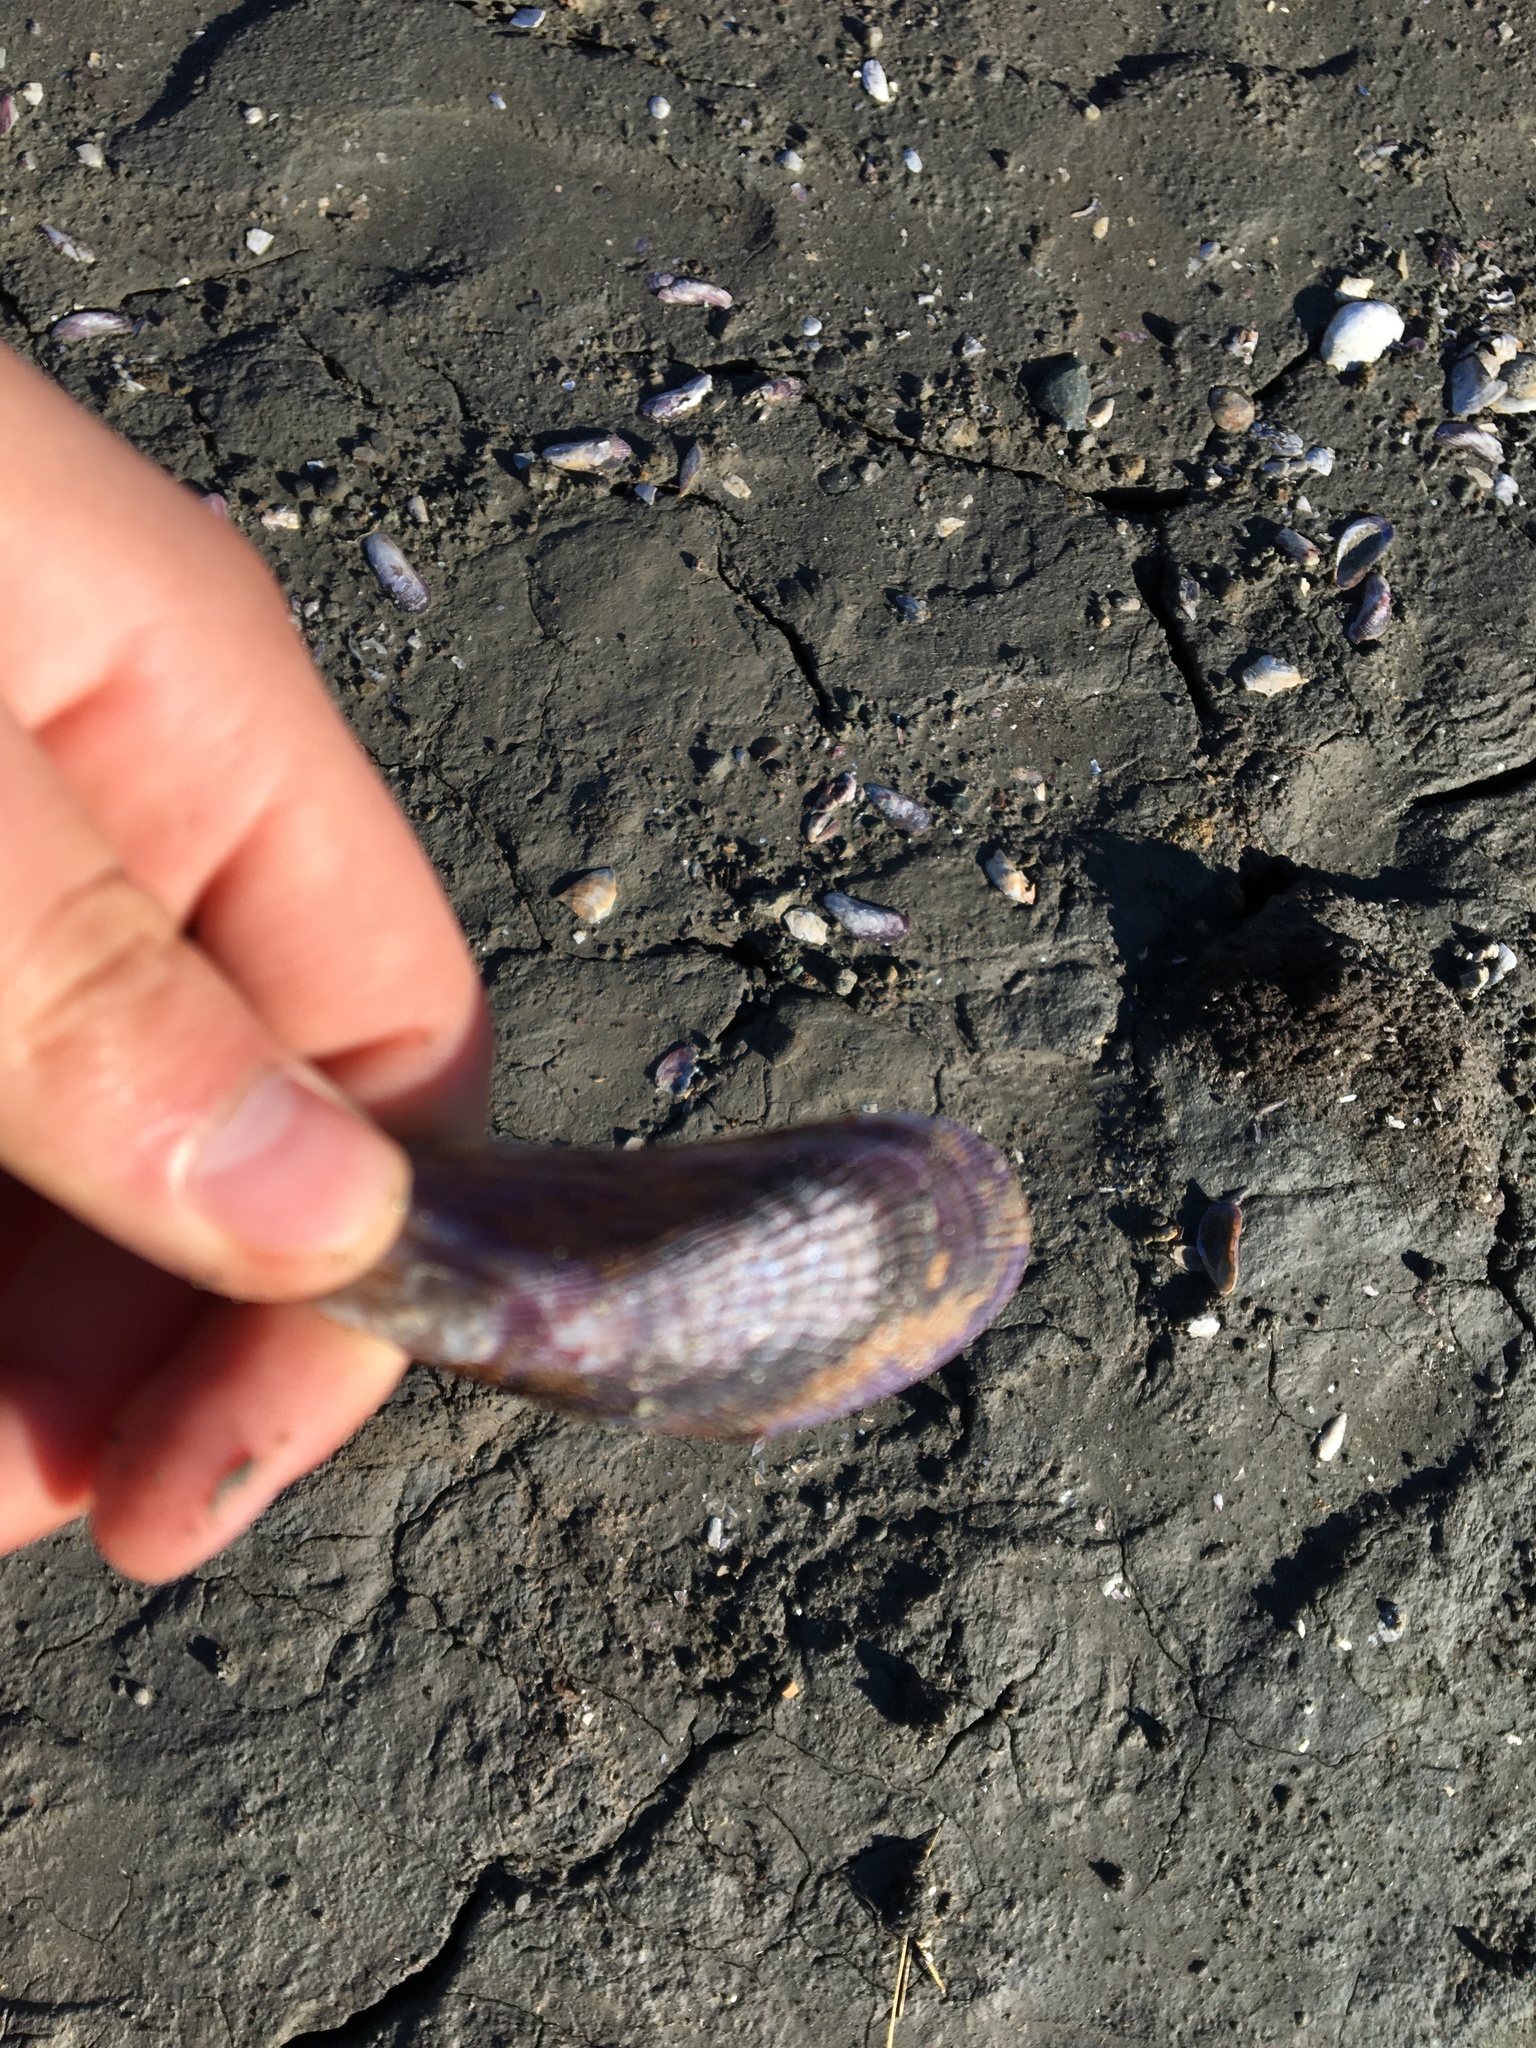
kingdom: Animalia
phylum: Mollusca
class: Bivalvia
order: Mytilida
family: Mytilidae
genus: Geukensia
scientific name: Geukensia demissa
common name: Ribbed mussel
